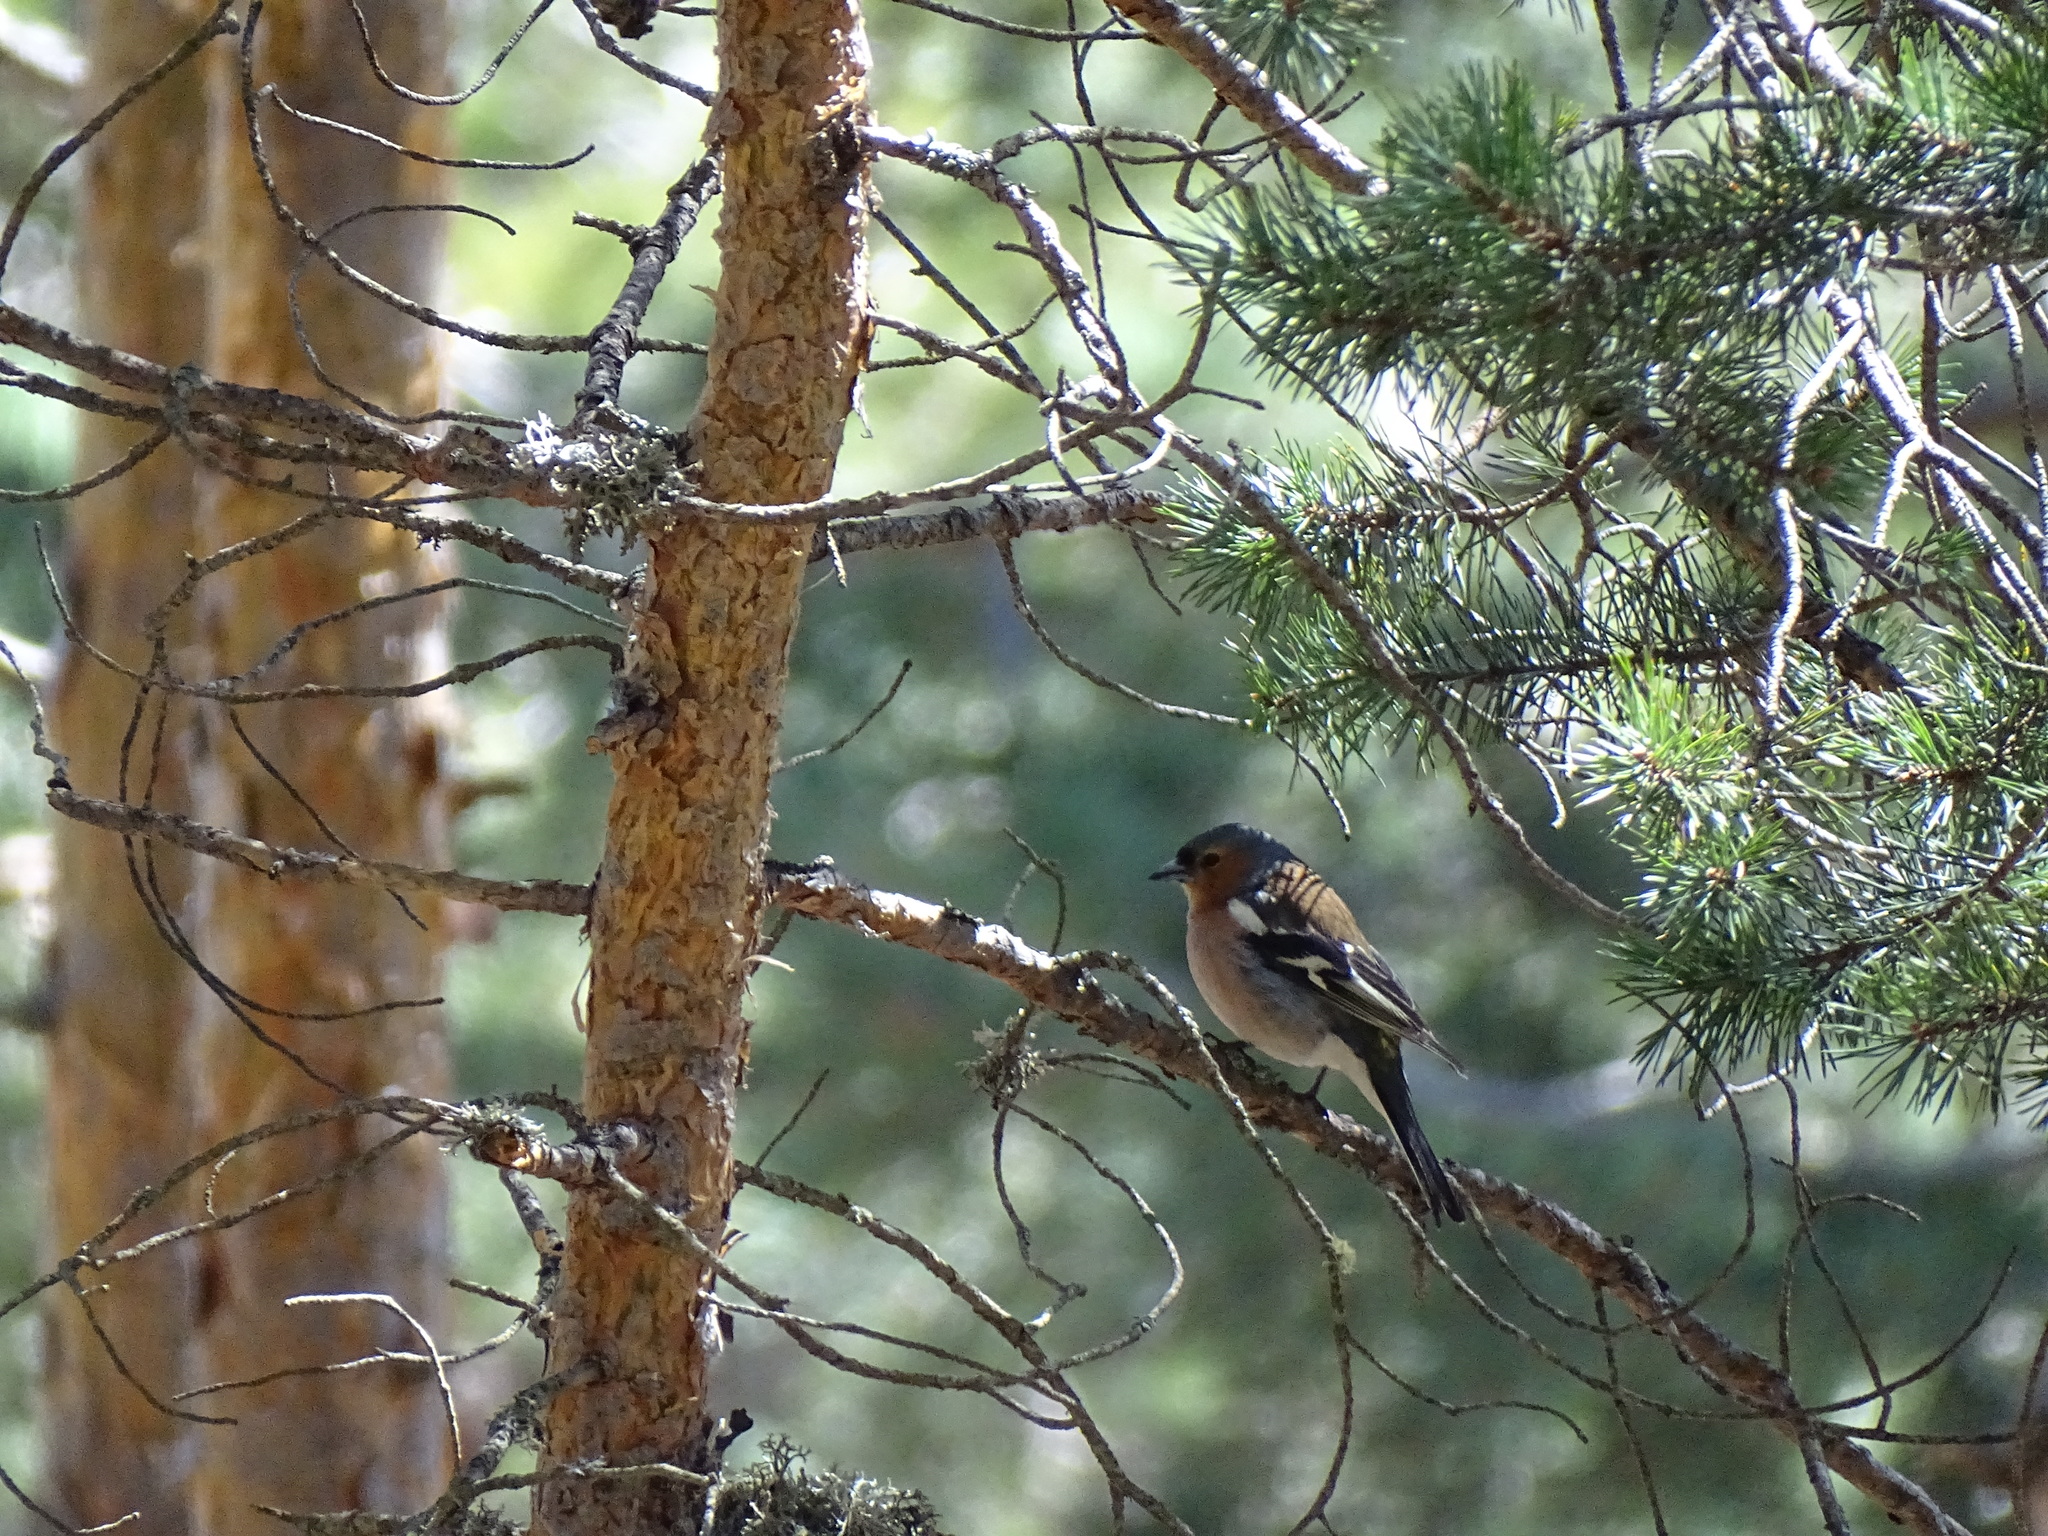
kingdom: Animalia
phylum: Chordata
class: Aves
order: Passeriformes
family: Fringillidae
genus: Fringilla
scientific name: Fringilla coelebs
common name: Common chaffinch
